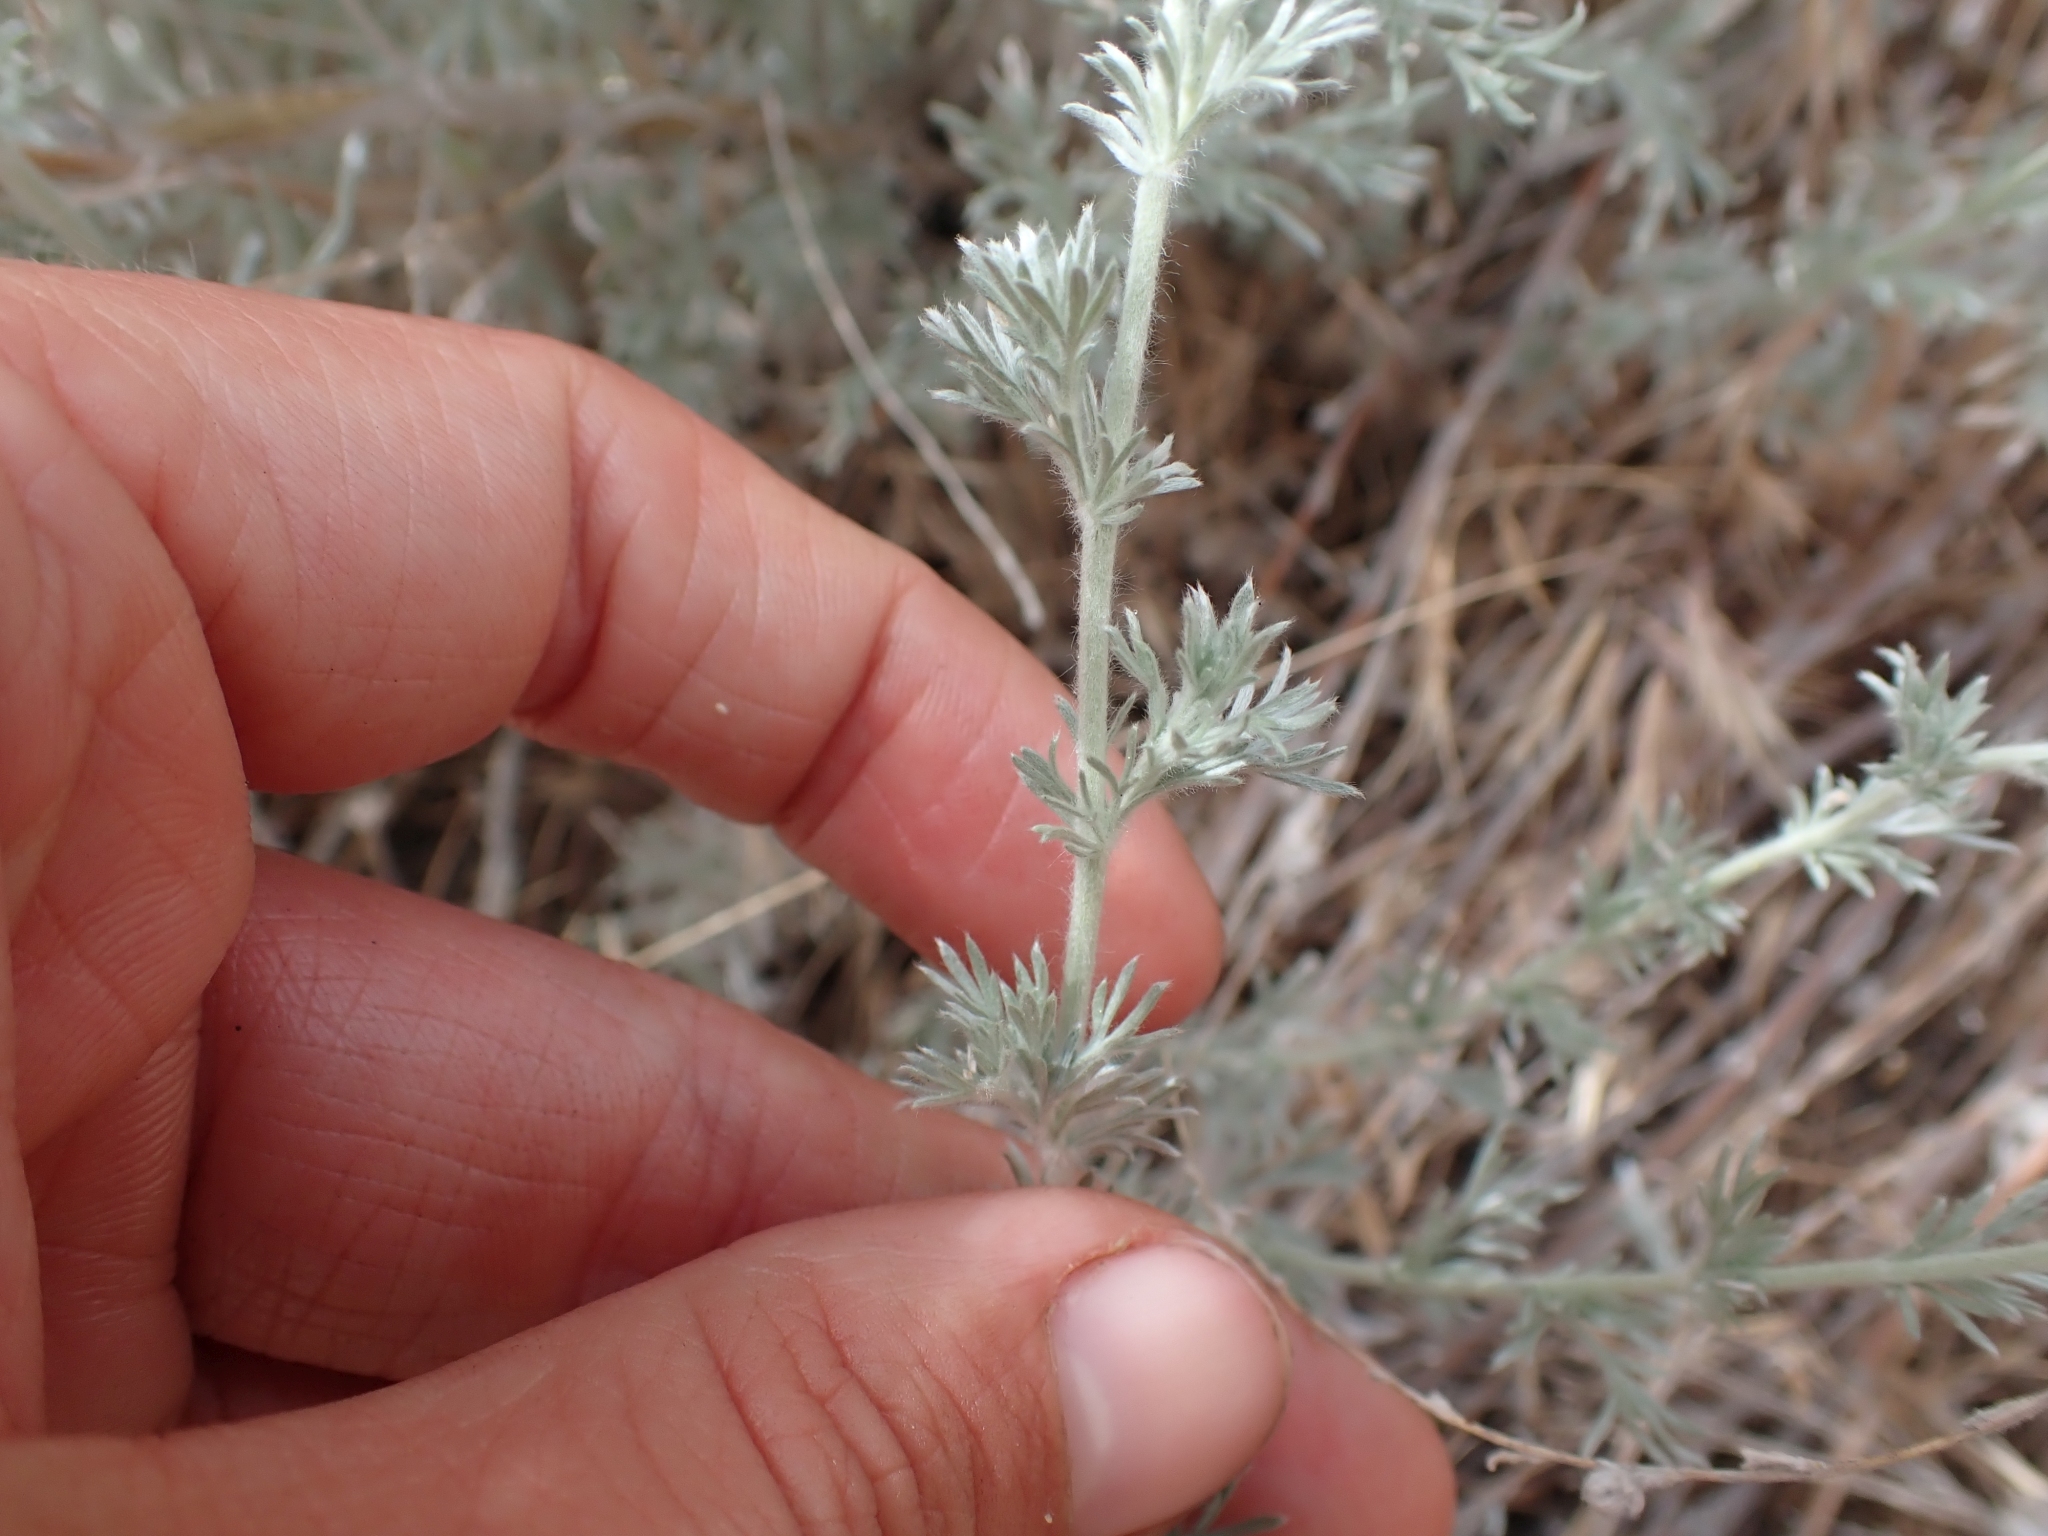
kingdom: Plantae
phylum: Tracheophyta
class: Magnoliopsida
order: Asterales
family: Asteraceae
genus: Artemisia
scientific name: Artemisia frigida
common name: Prairie sagewort
